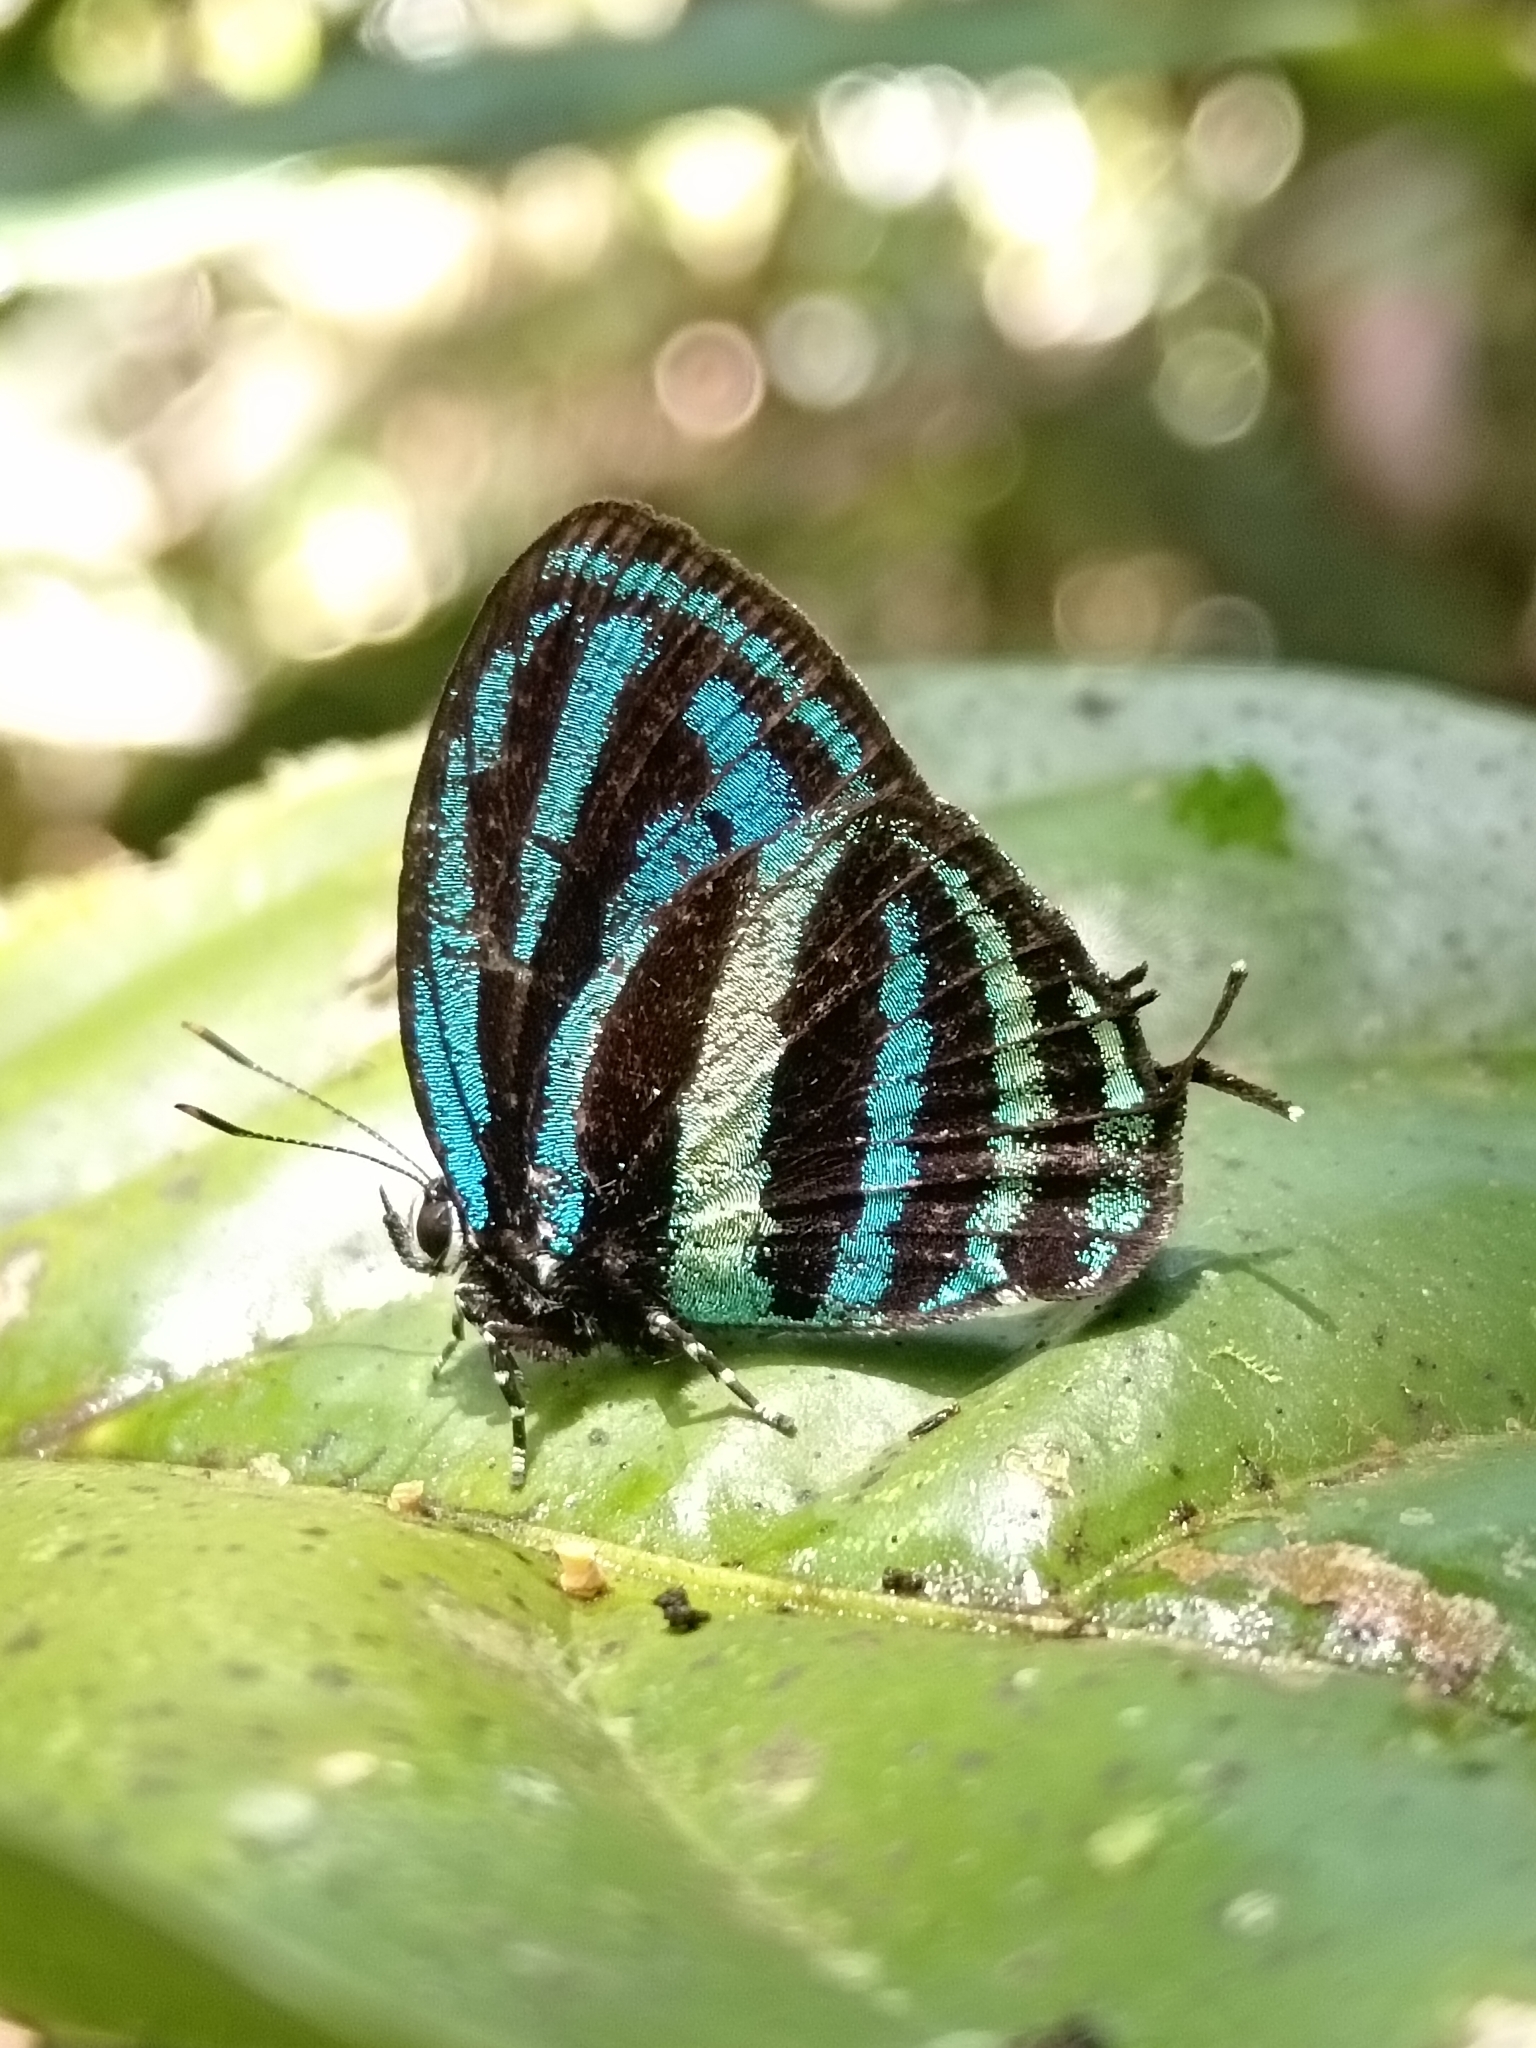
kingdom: Animalia
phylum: Arthropoda
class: Insecta
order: Lepidoptera
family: Lycaenidae
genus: Thestius
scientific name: Thestius
